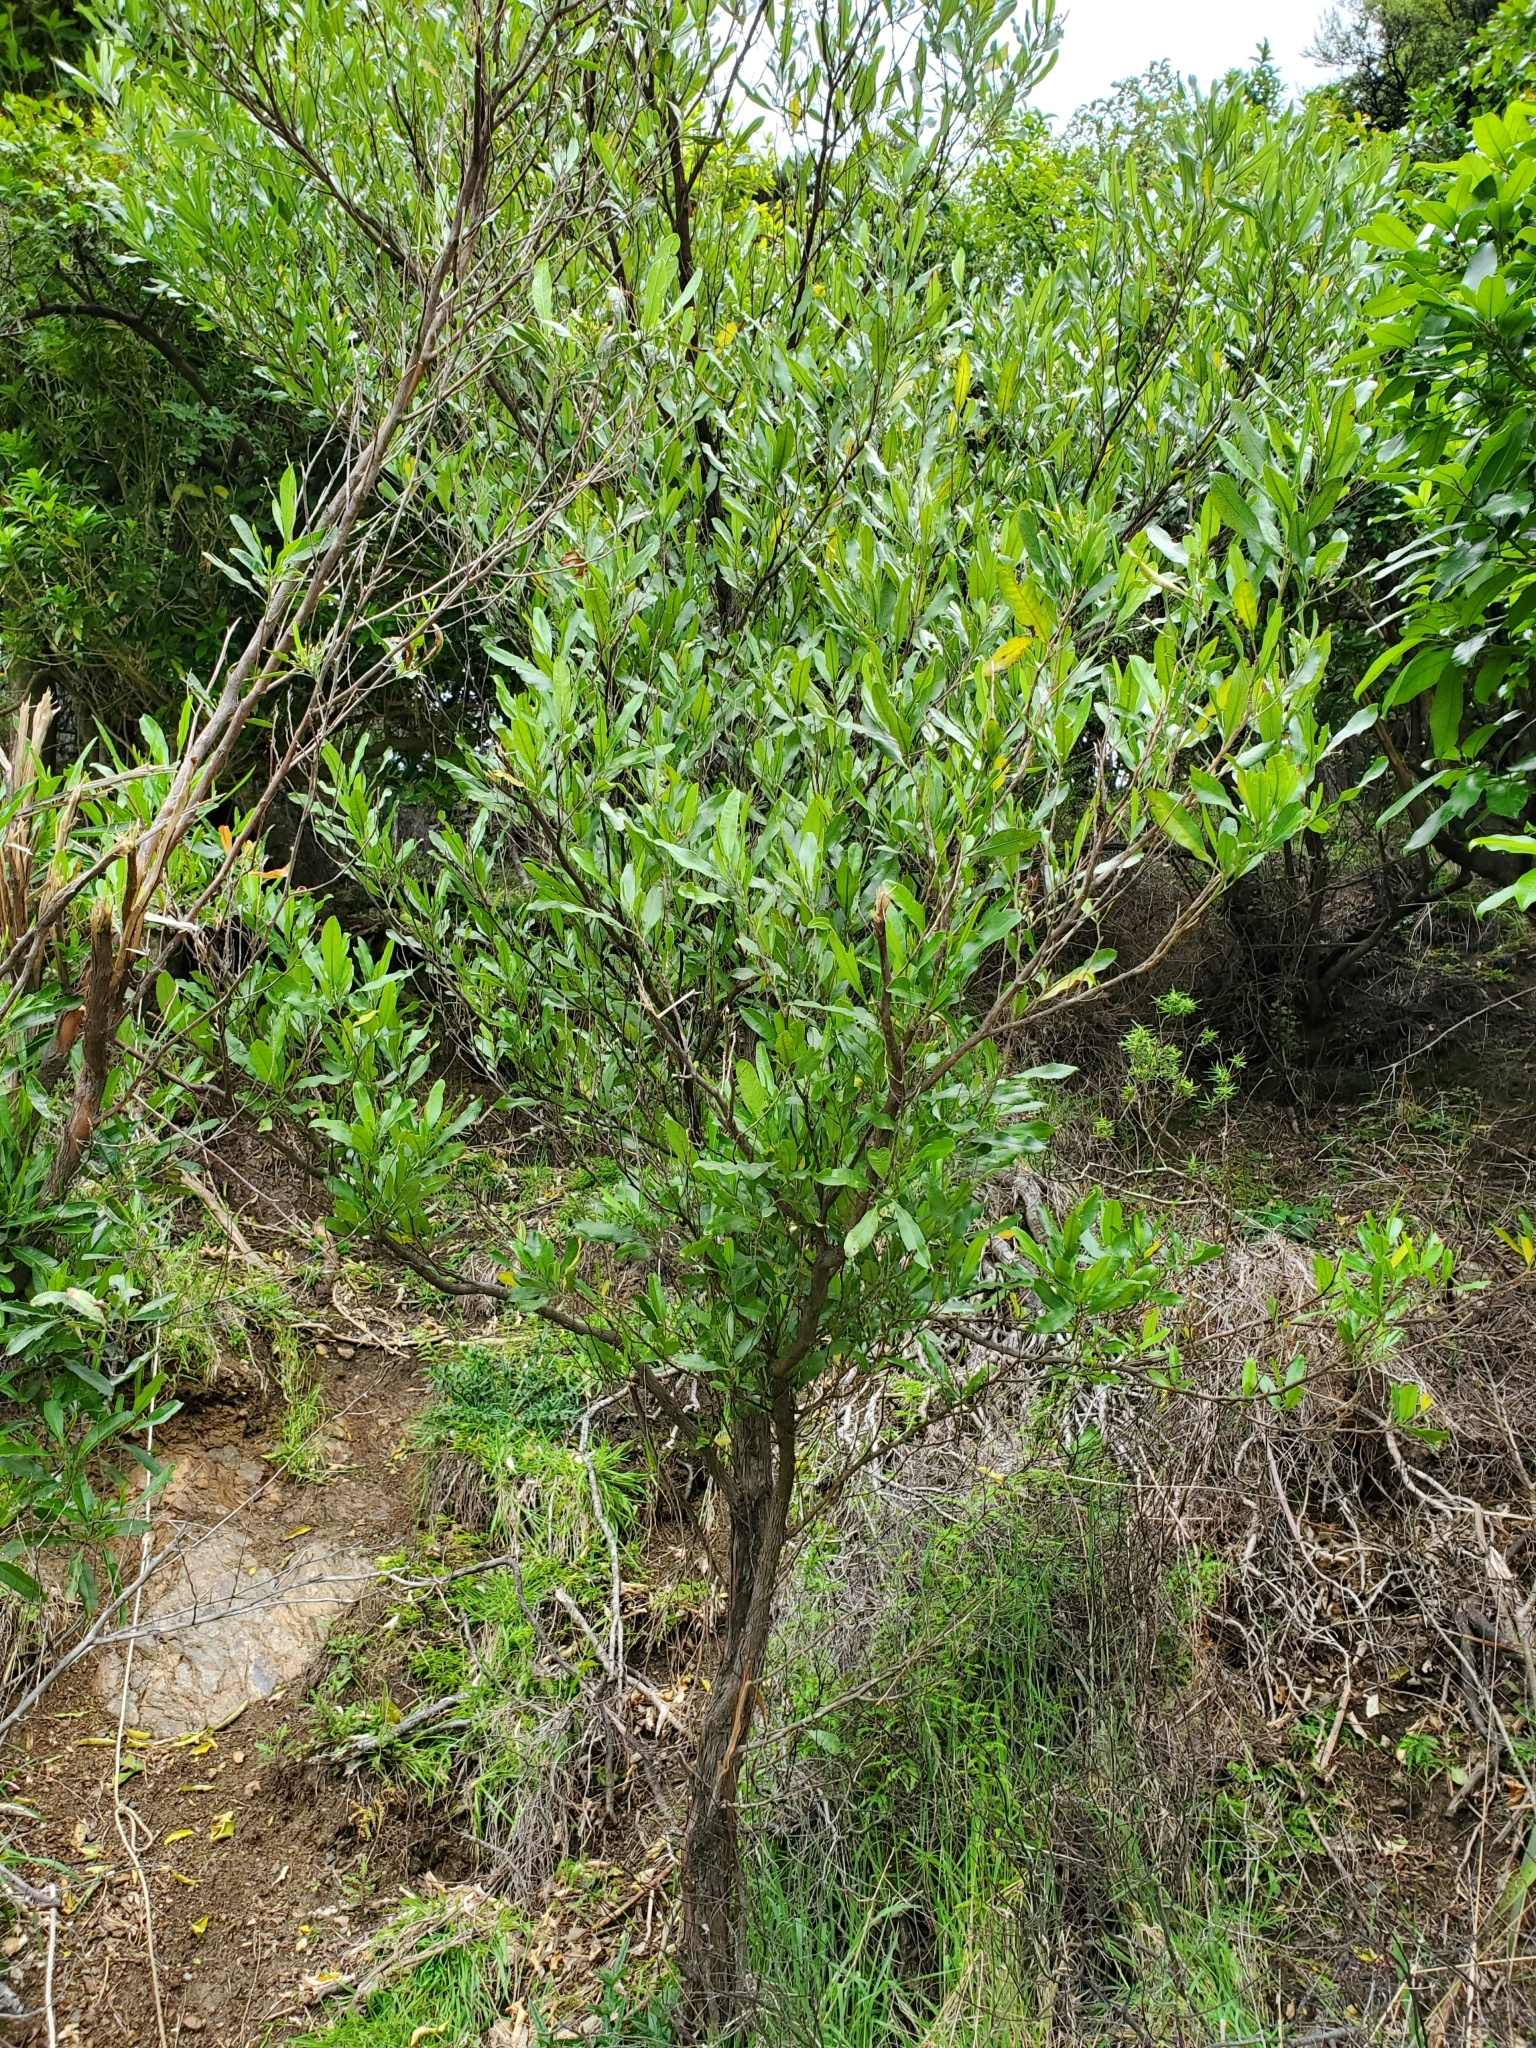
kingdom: Plantae
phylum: Tracheophyta
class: Magnoliopsida
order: Sapindales
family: Sapindaceae
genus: Dodonaea
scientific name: Dodonaea viscosa
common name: Hopbush
